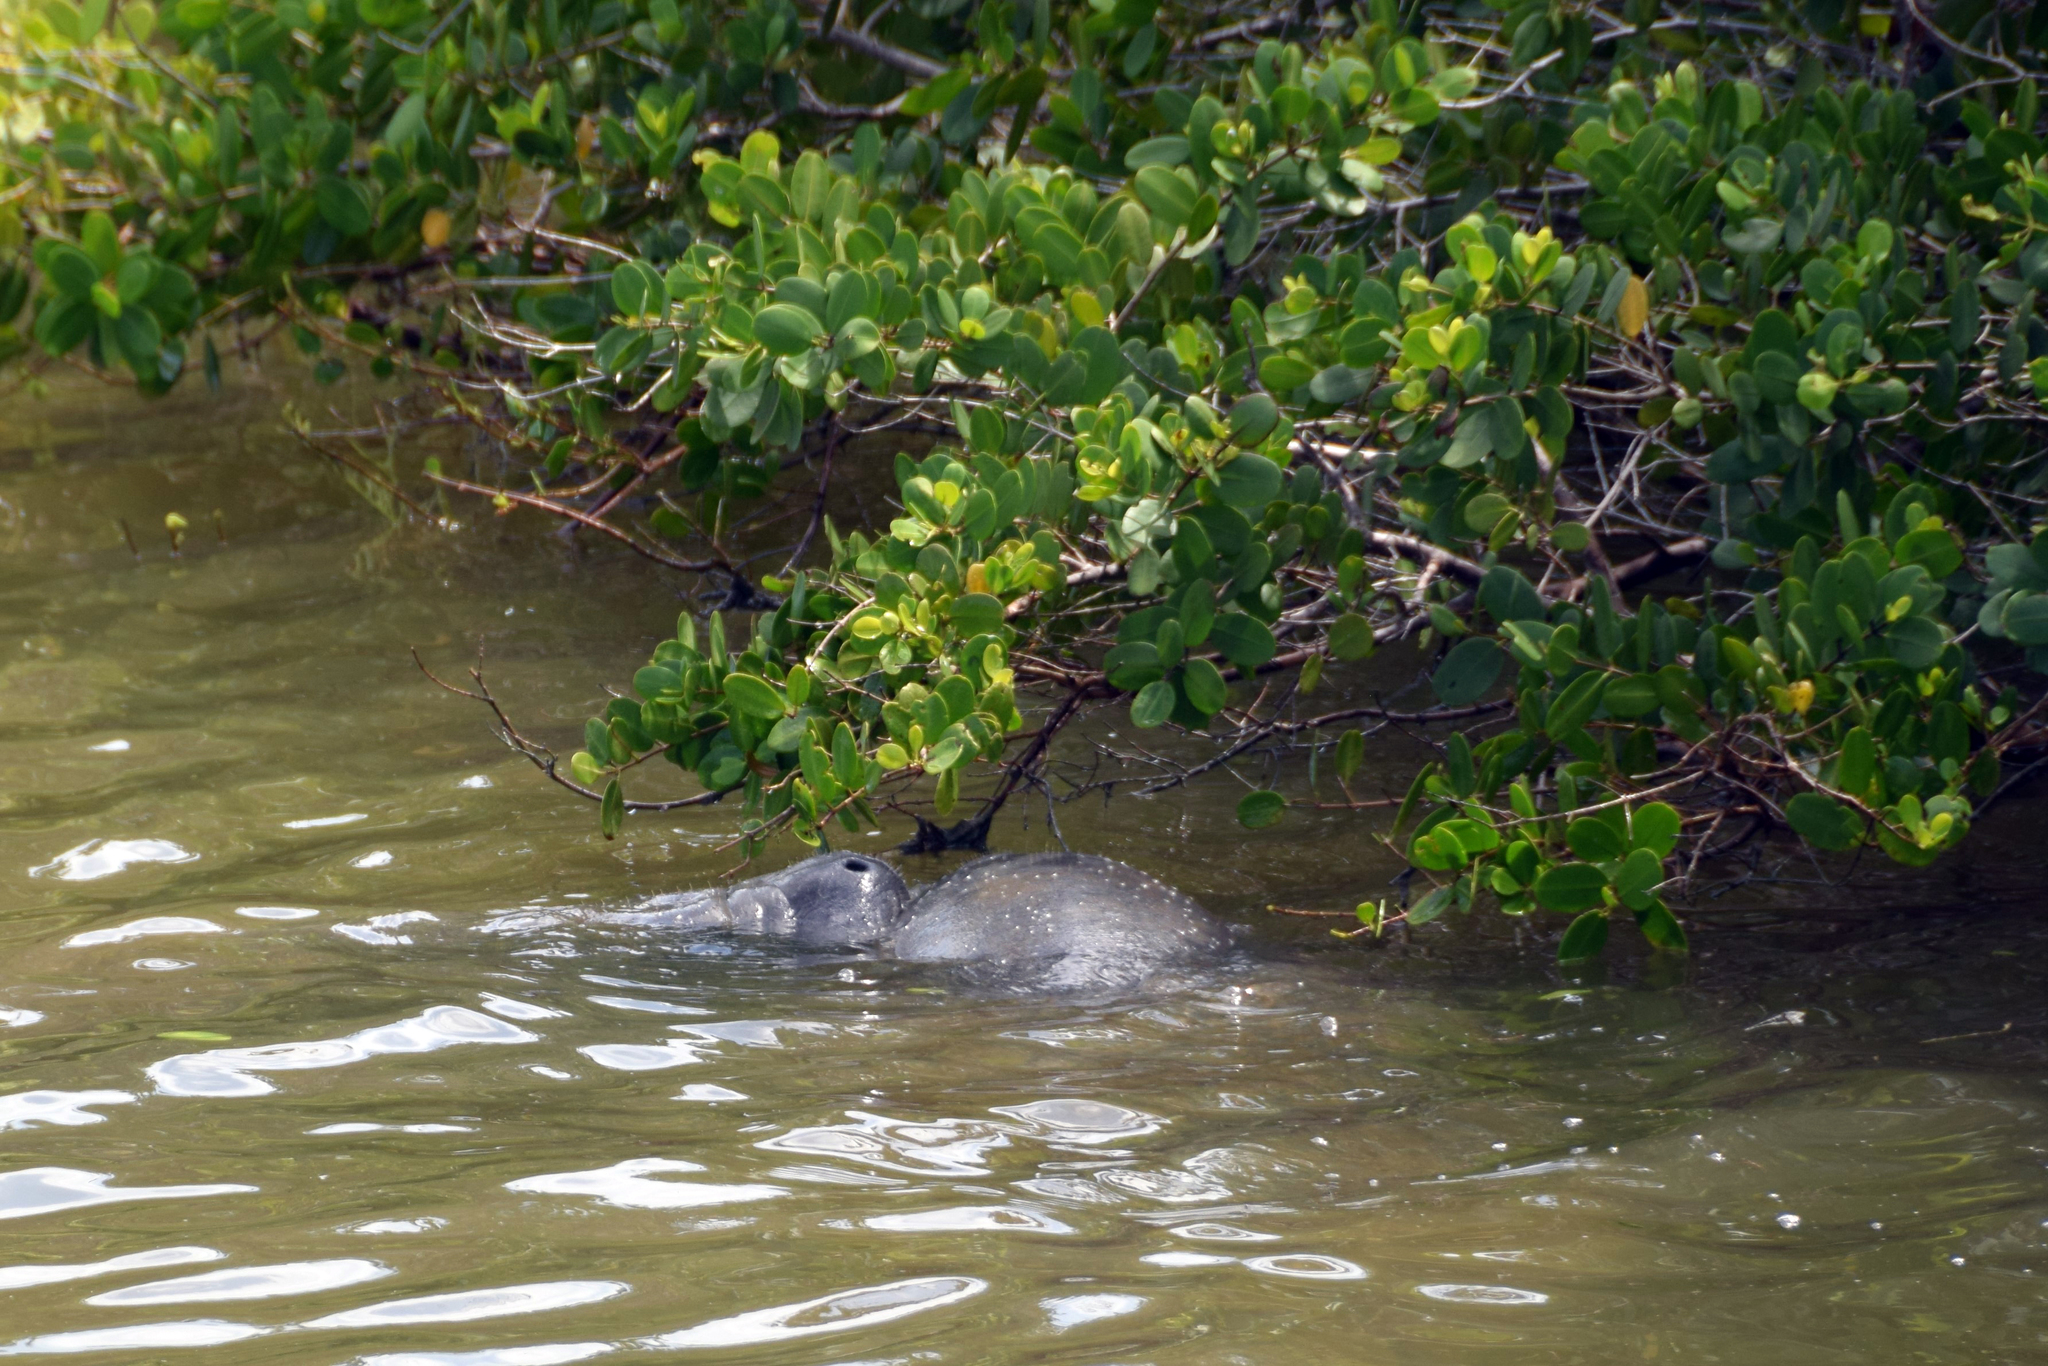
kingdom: Animalia
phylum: Chordata
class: Mammalia
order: Sirenia
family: Trichechidae
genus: Trichechus
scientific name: Trichechus manatus
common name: West indian manatee
